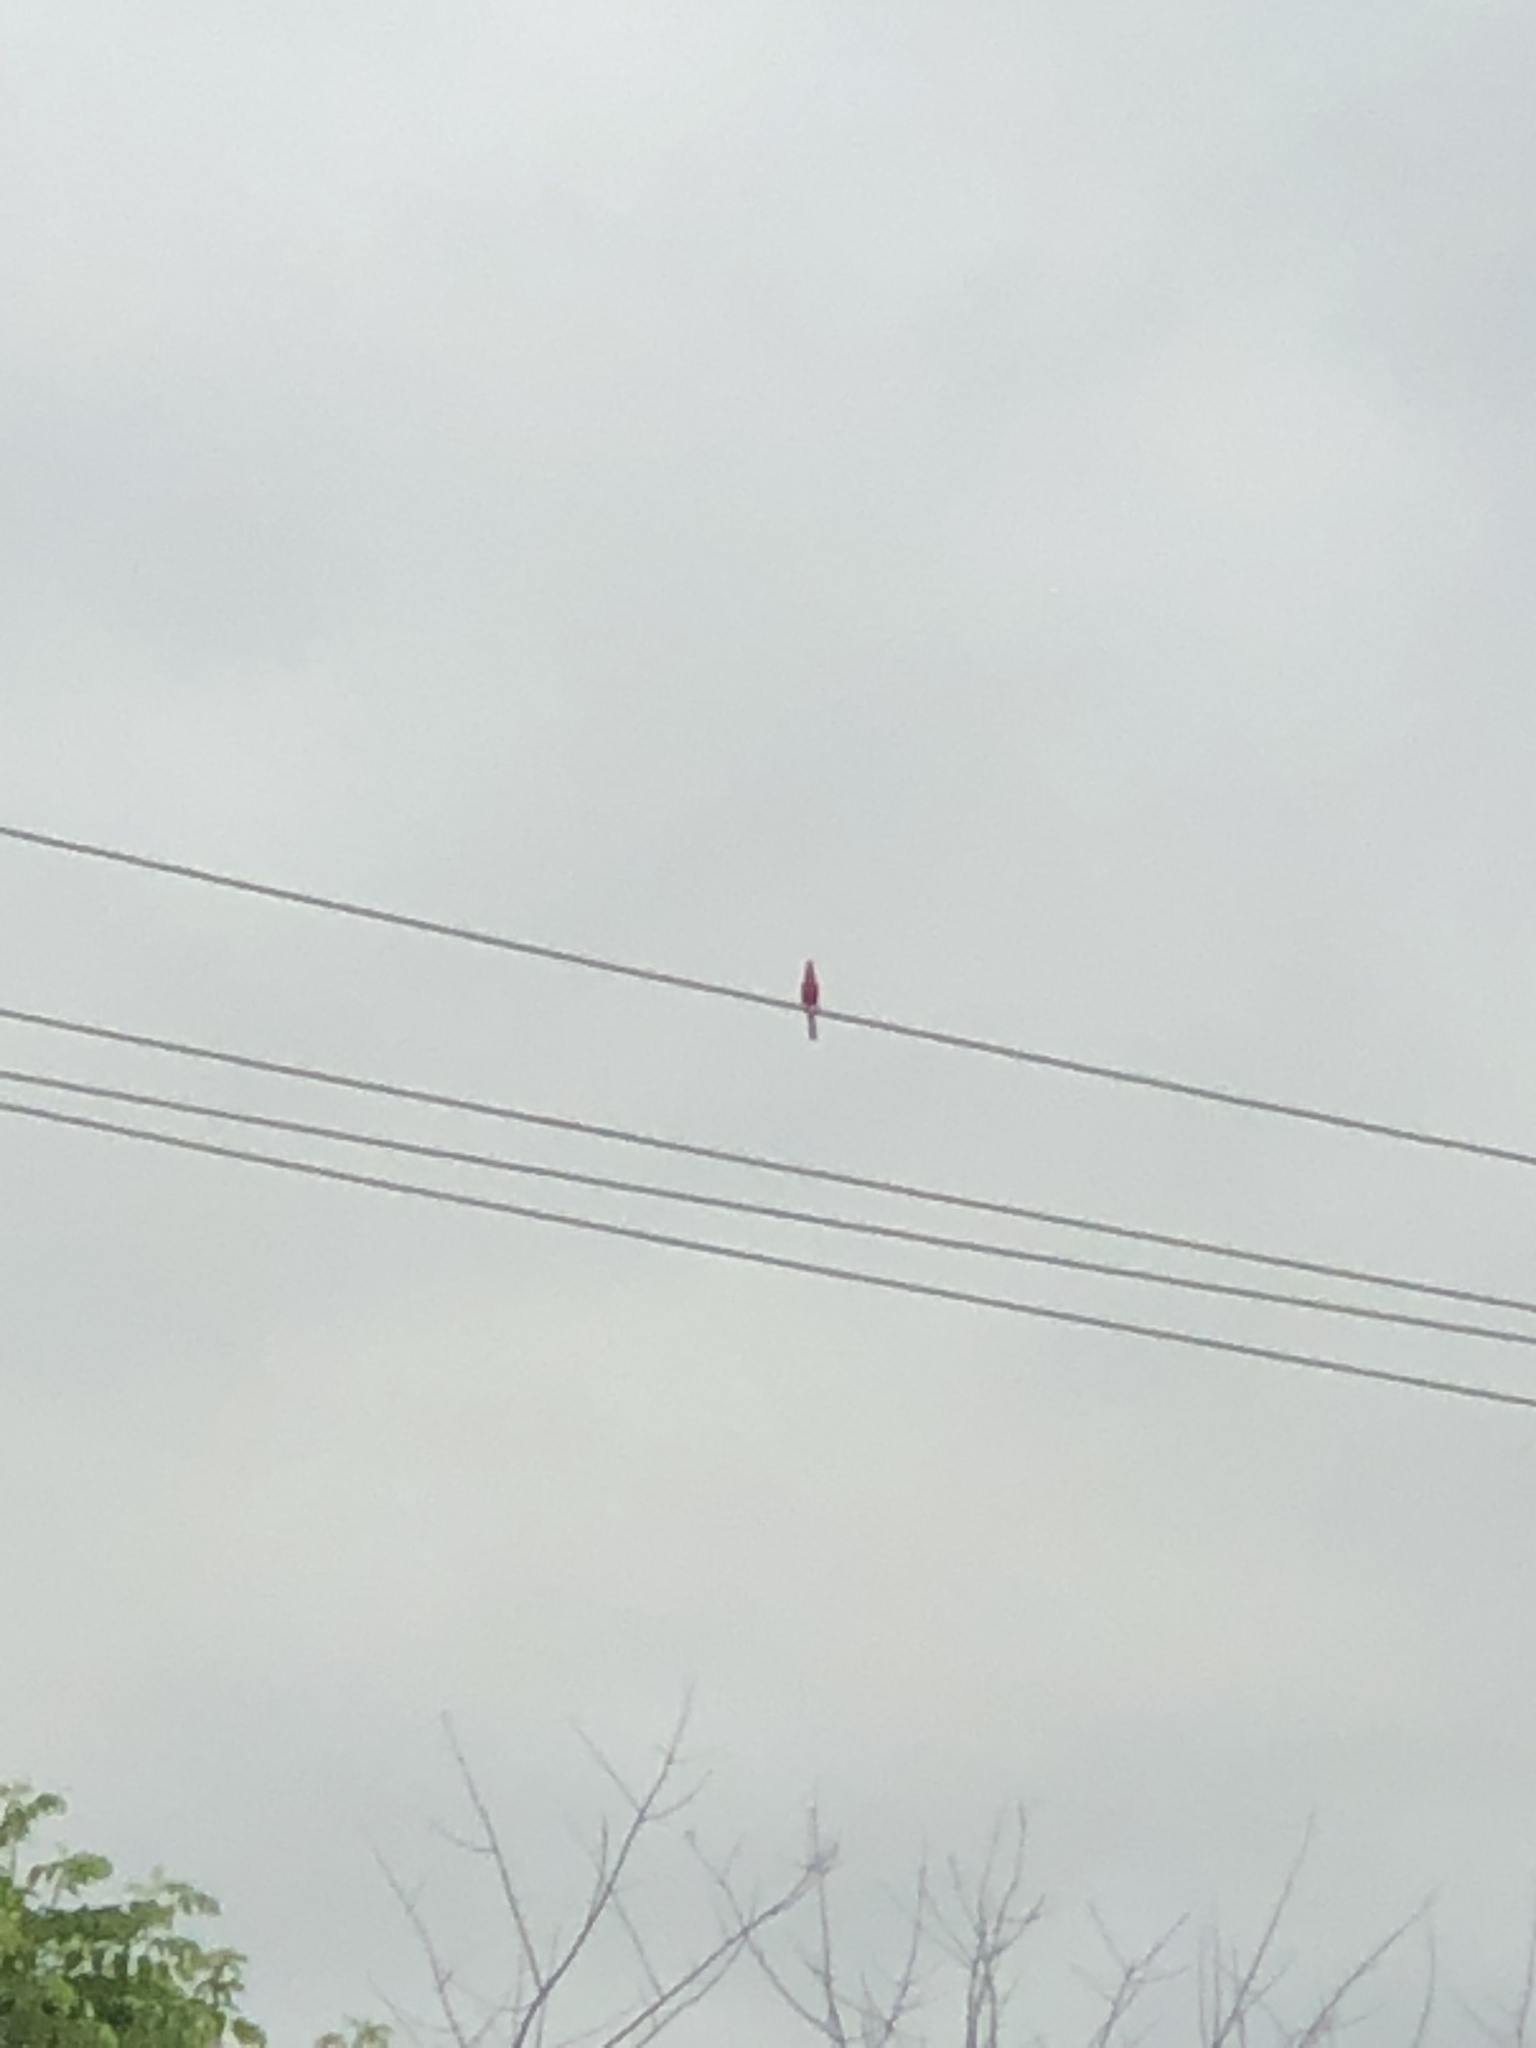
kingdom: Animalia
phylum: Chordata
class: Aves
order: Passeriformes
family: Cardinalidae
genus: Cardinalis
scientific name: Cardinalis cardinalis
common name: Northern cardinal
